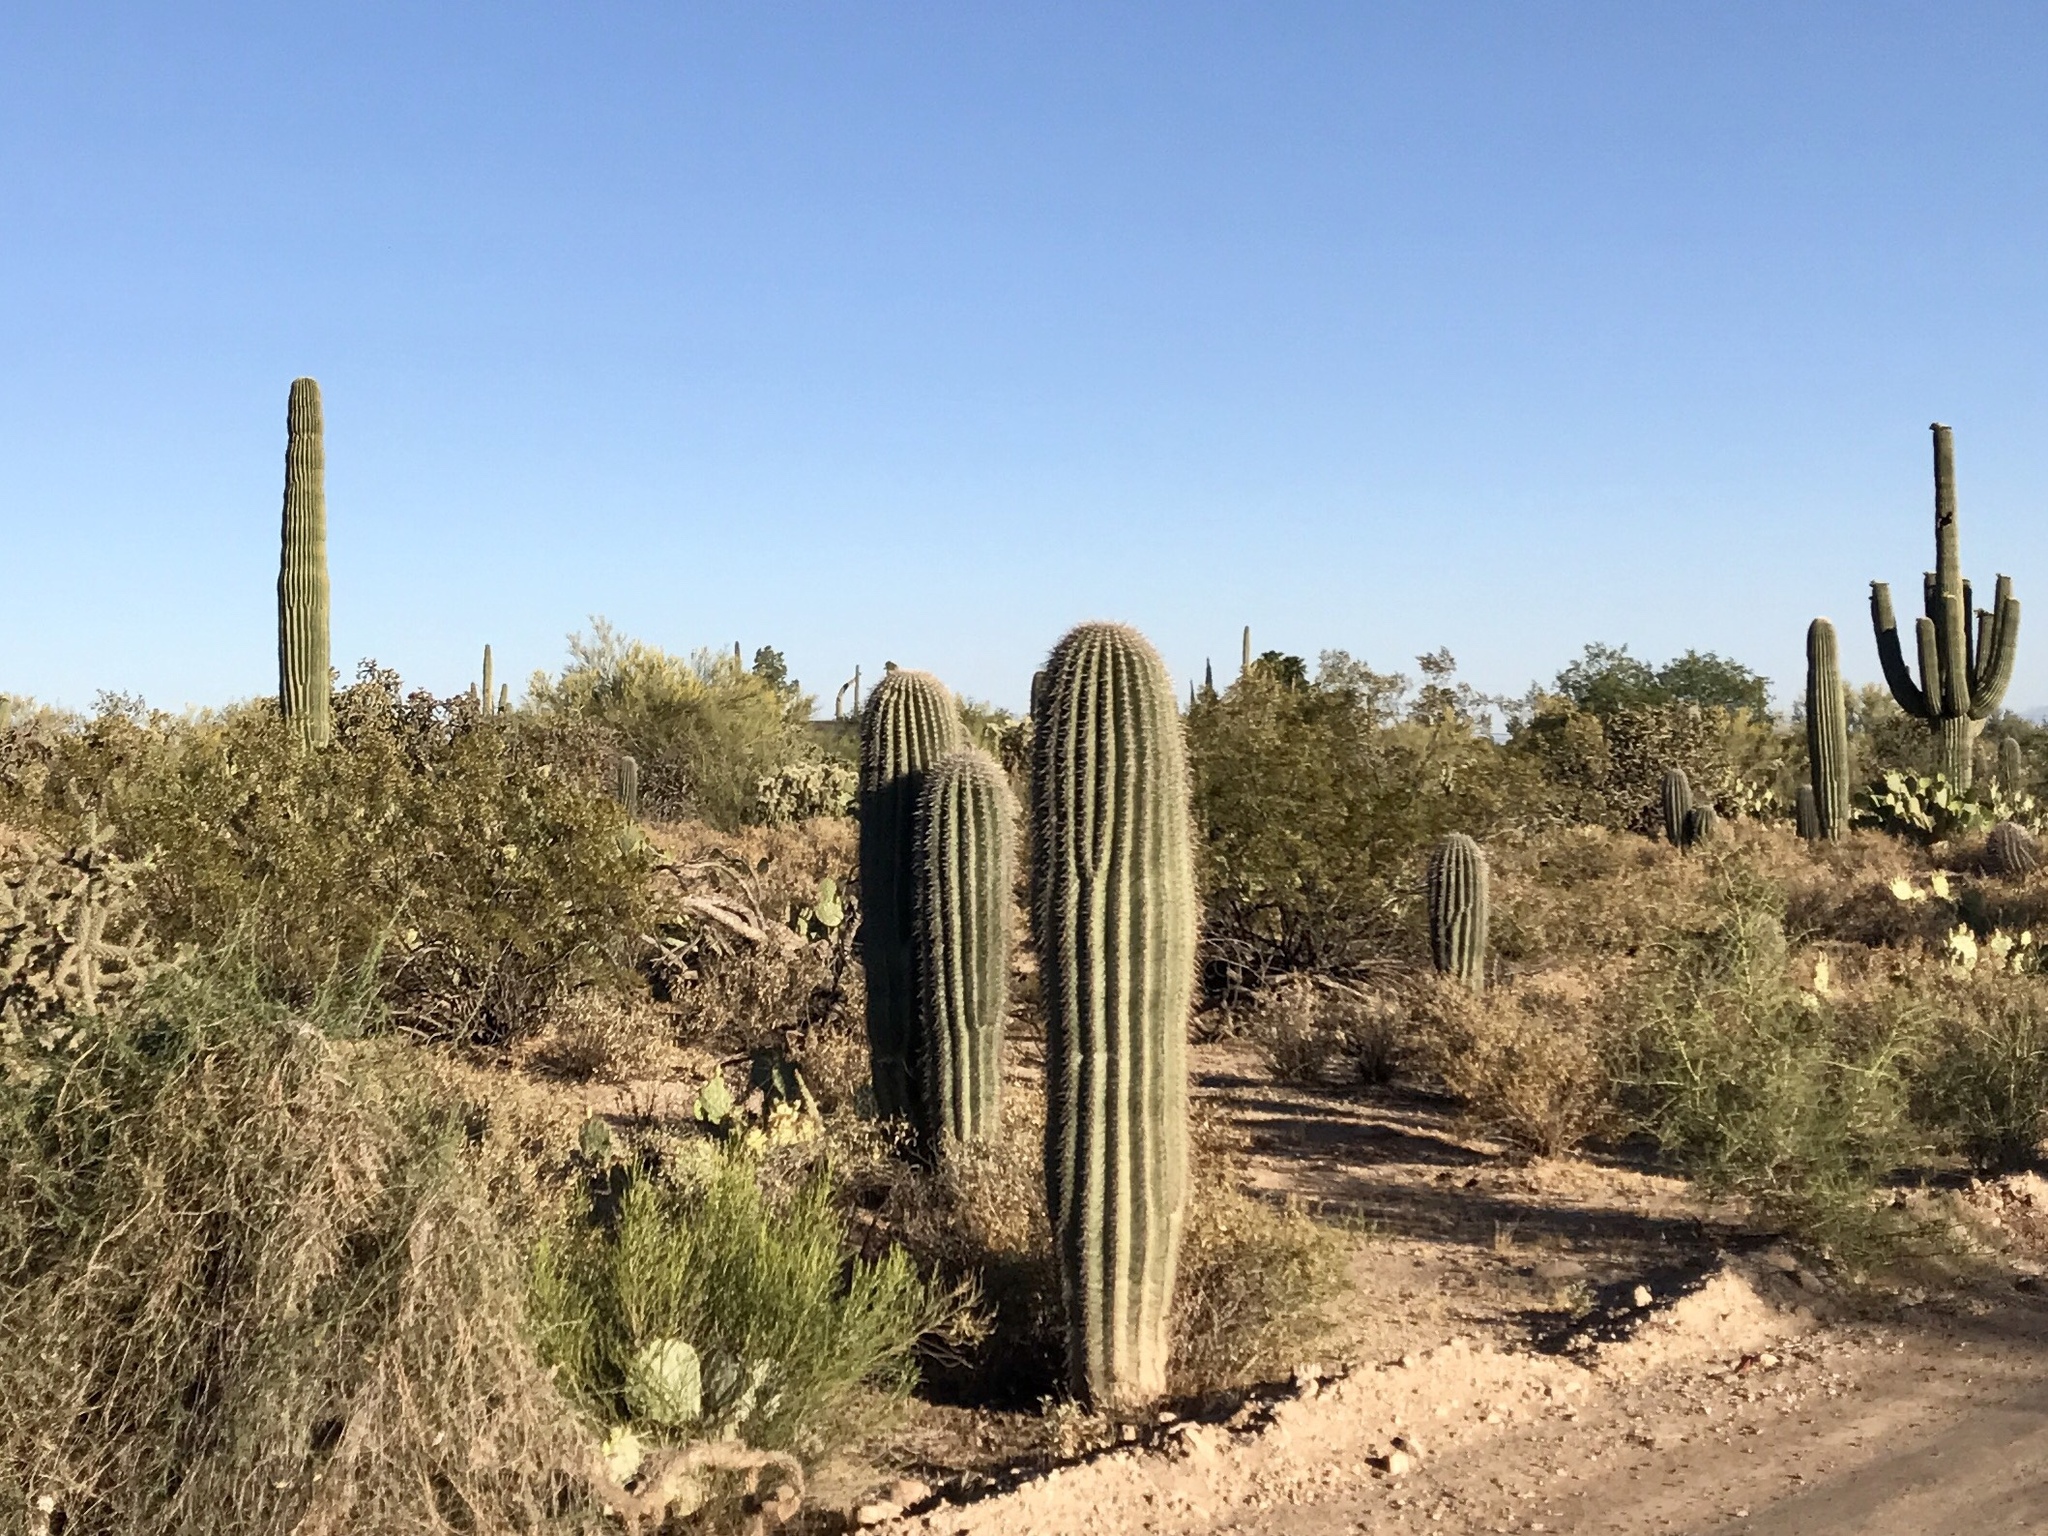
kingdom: Plantae
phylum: Tracheophyta
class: Magnoliopsida
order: Caryophyllales
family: Cactaceae
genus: Carnegiea
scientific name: Carnegiea gigantea
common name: Saguaro
